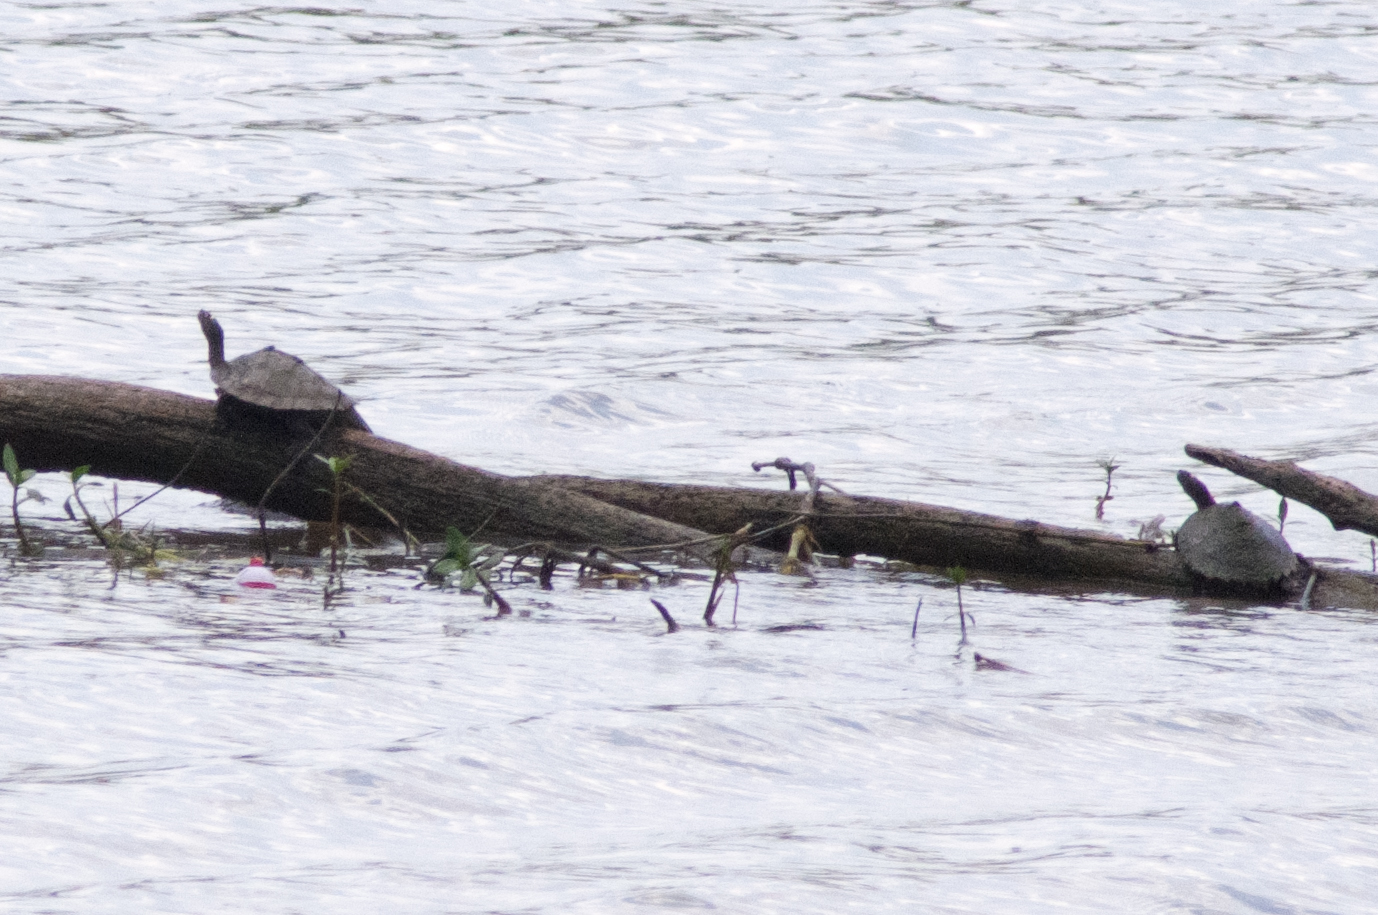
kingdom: Animalia
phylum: Chordata
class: Testudines
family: Emydidae
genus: Graptemys
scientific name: Graptemys sabinensis
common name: Sabine map turtle
